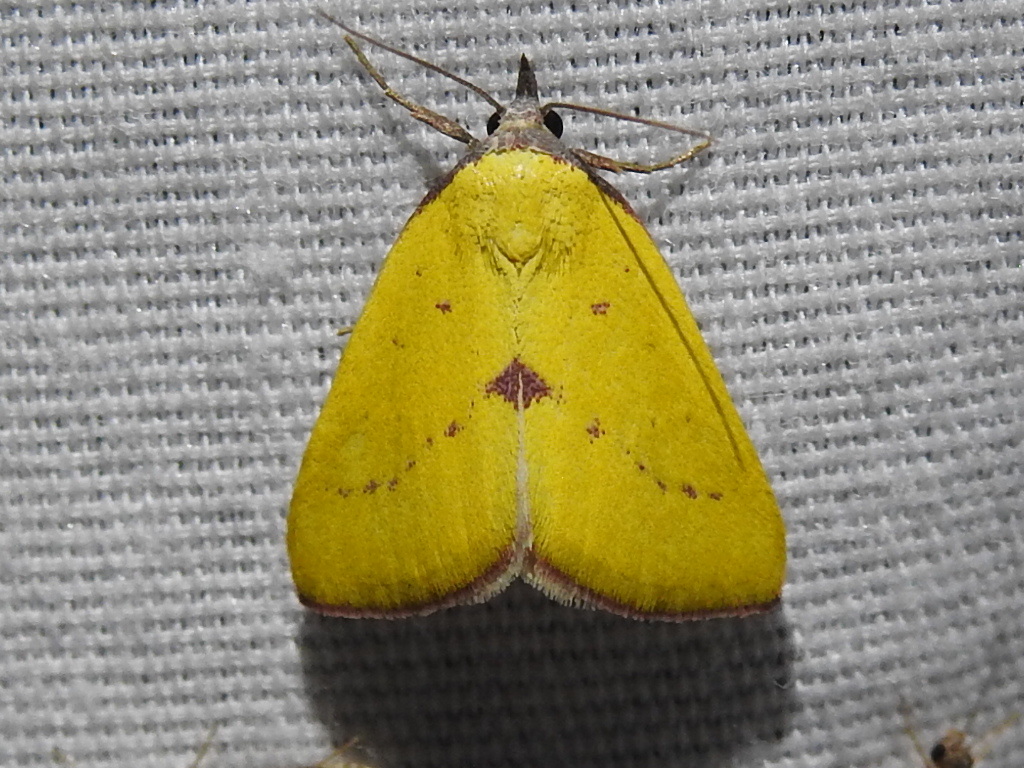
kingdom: Animalia
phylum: Arthropoda
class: Insecta
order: Lepidoptera
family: Erebidae
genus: Phytometra
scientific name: Phytometra orgiae
